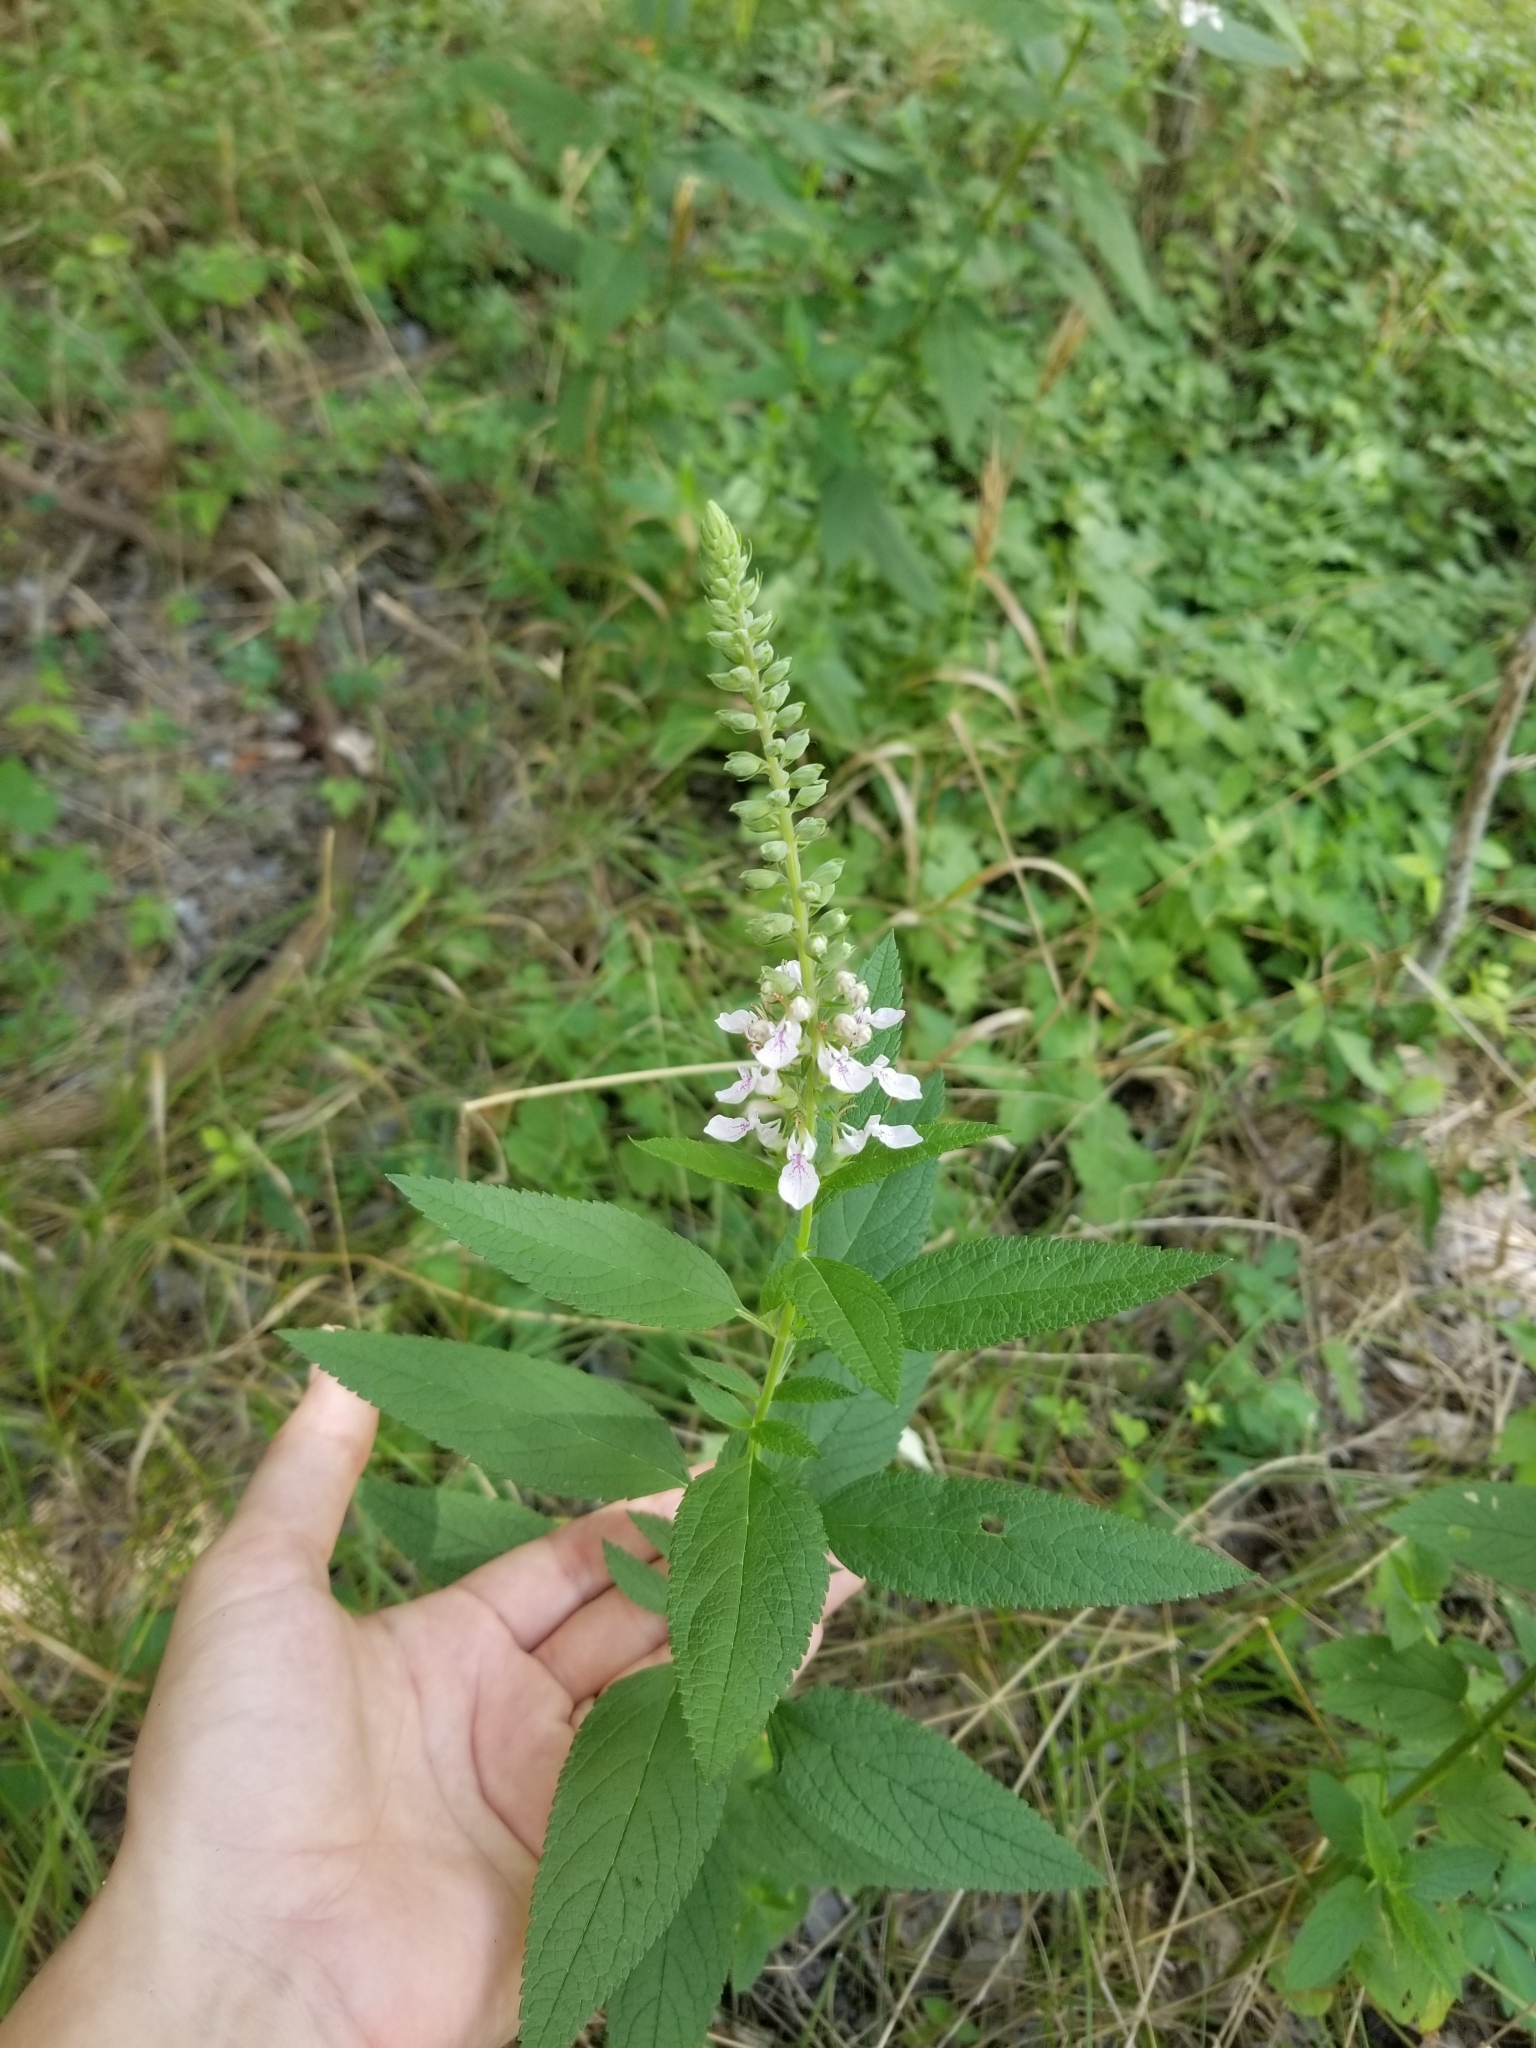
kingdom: Plantae
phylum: Tracheophyta
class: Magnoliopsida
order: Lamiales
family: Lamiaceae
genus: Teucrium
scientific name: Teucrium canadense
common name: American germander
